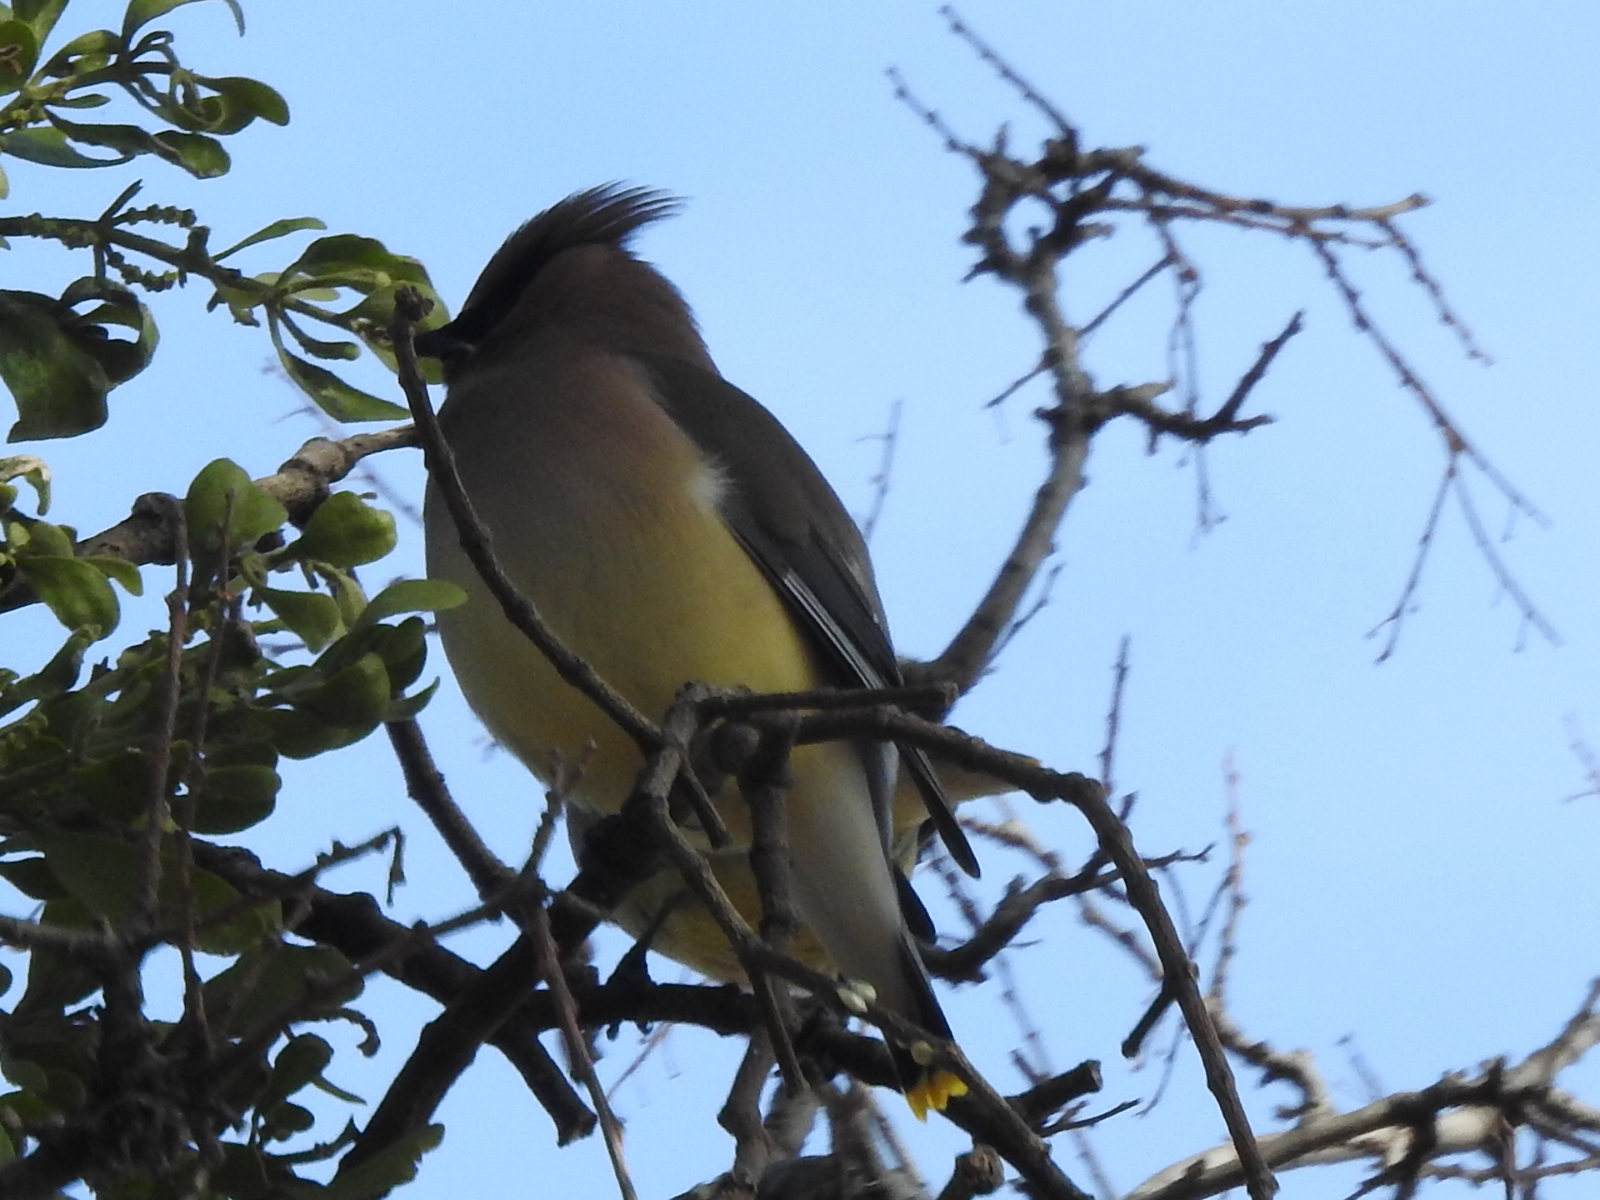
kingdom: Animalia
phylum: Chordata
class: Aves
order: Passeriformes
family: Bombycillidae
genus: Bombycilla
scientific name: Bombycilla cedrorum
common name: Cedar waxwing
